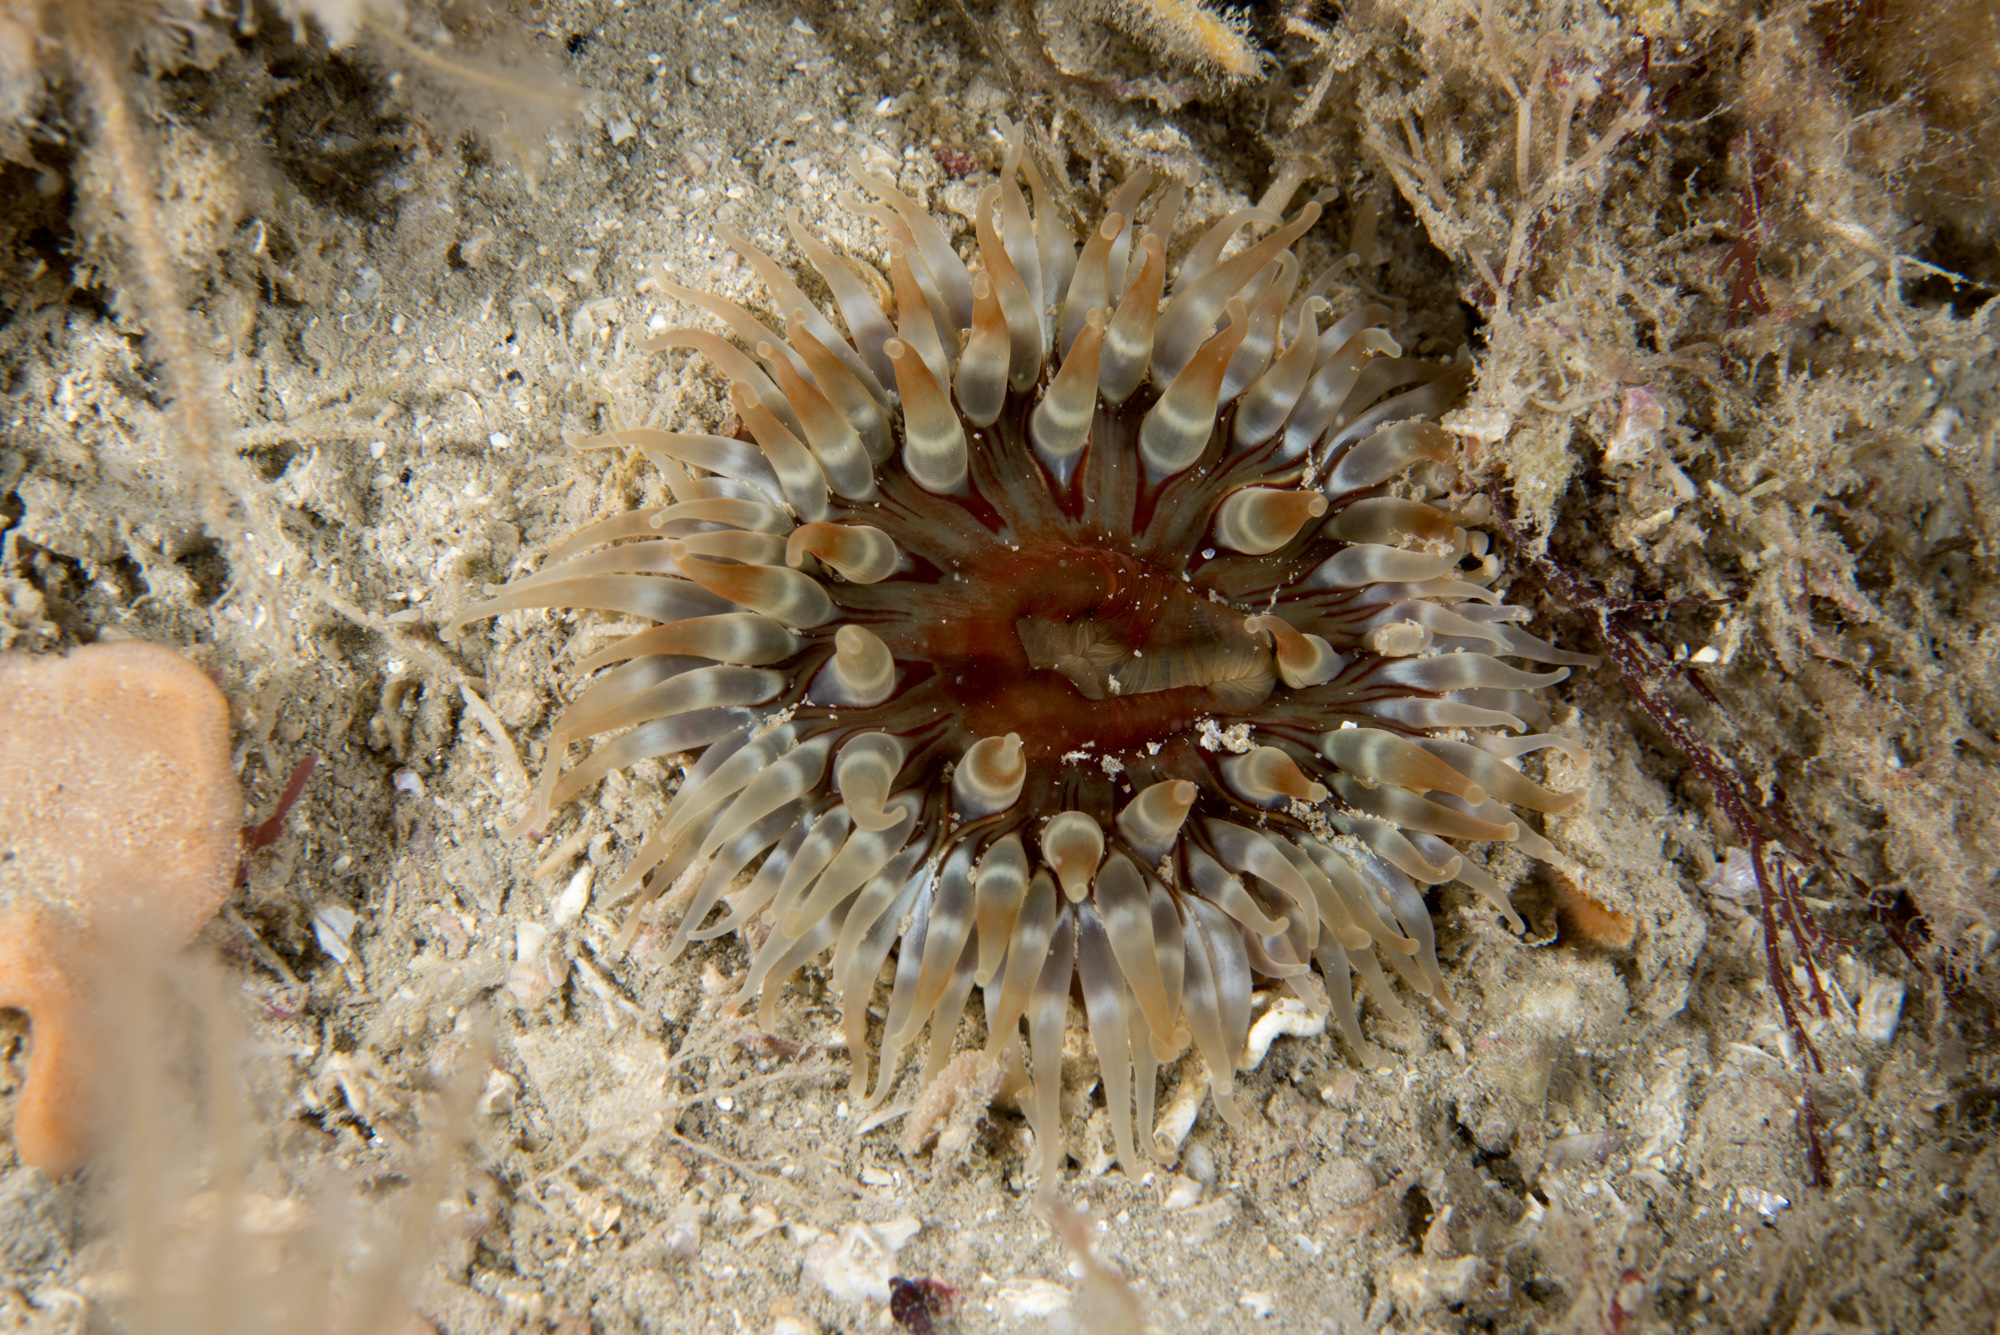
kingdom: Animalia
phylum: Cnidaria
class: Anthozoa
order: Actiniaria
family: Actiniidae
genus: Urticina
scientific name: Urticina felina
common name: Dahlia anemone
